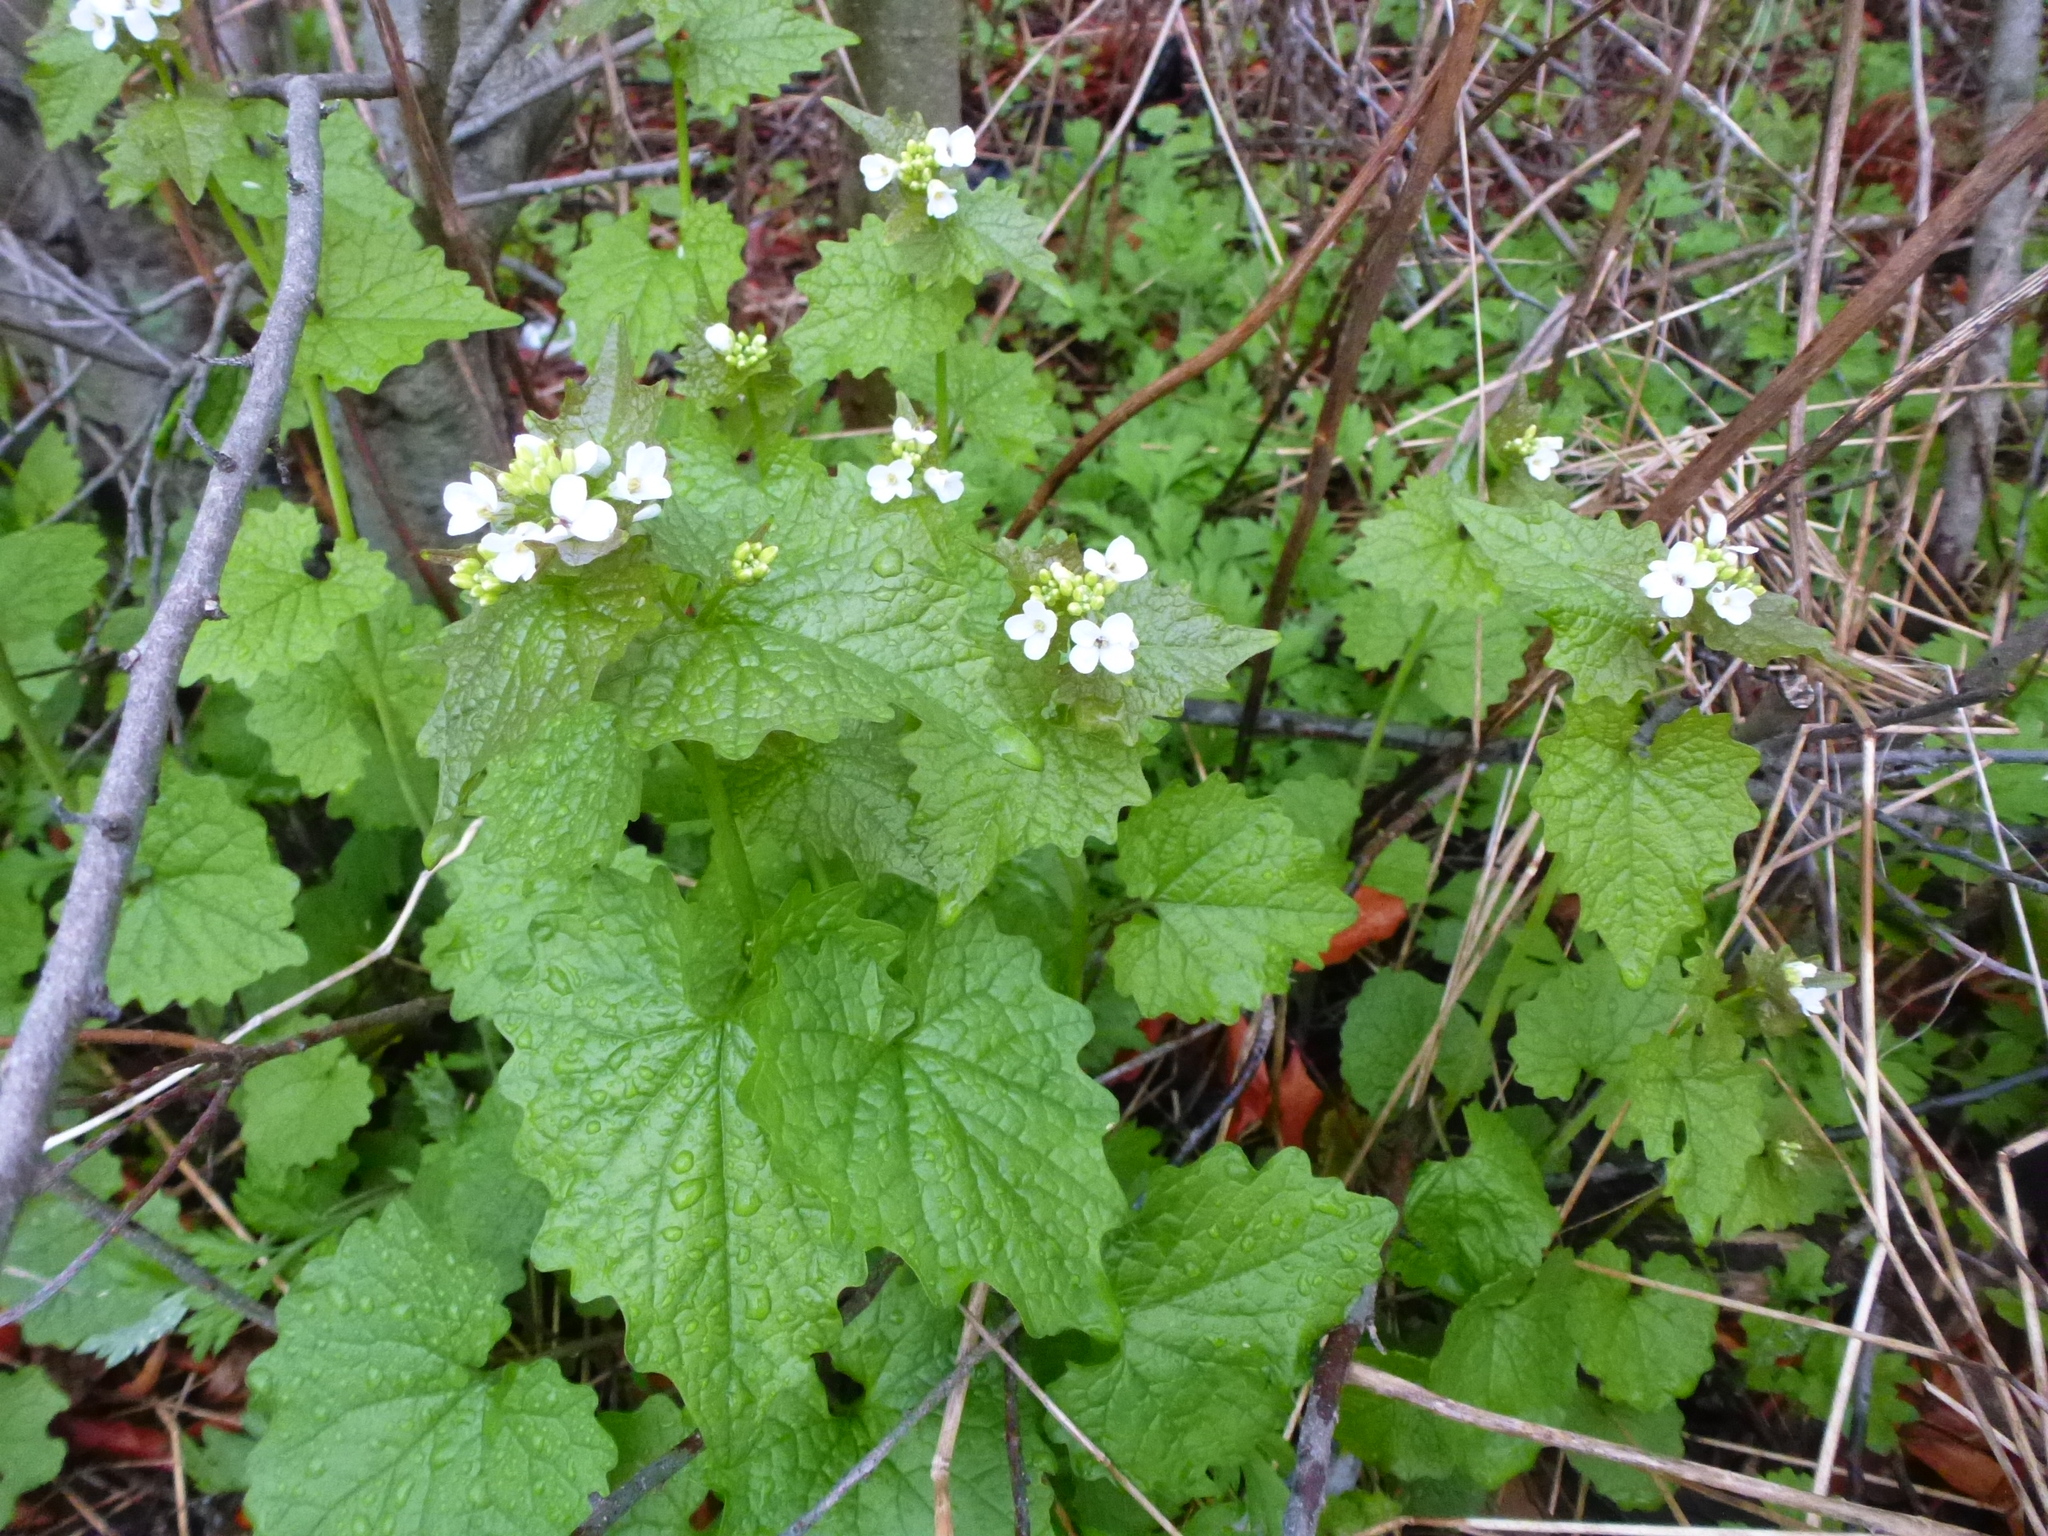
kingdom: Plantae
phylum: Tracheophyta
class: Magnoliopsida
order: Brassicales
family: Brassicaceae
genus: Alliaria
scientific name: Alliaria petiolata
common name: Garlic mustard
